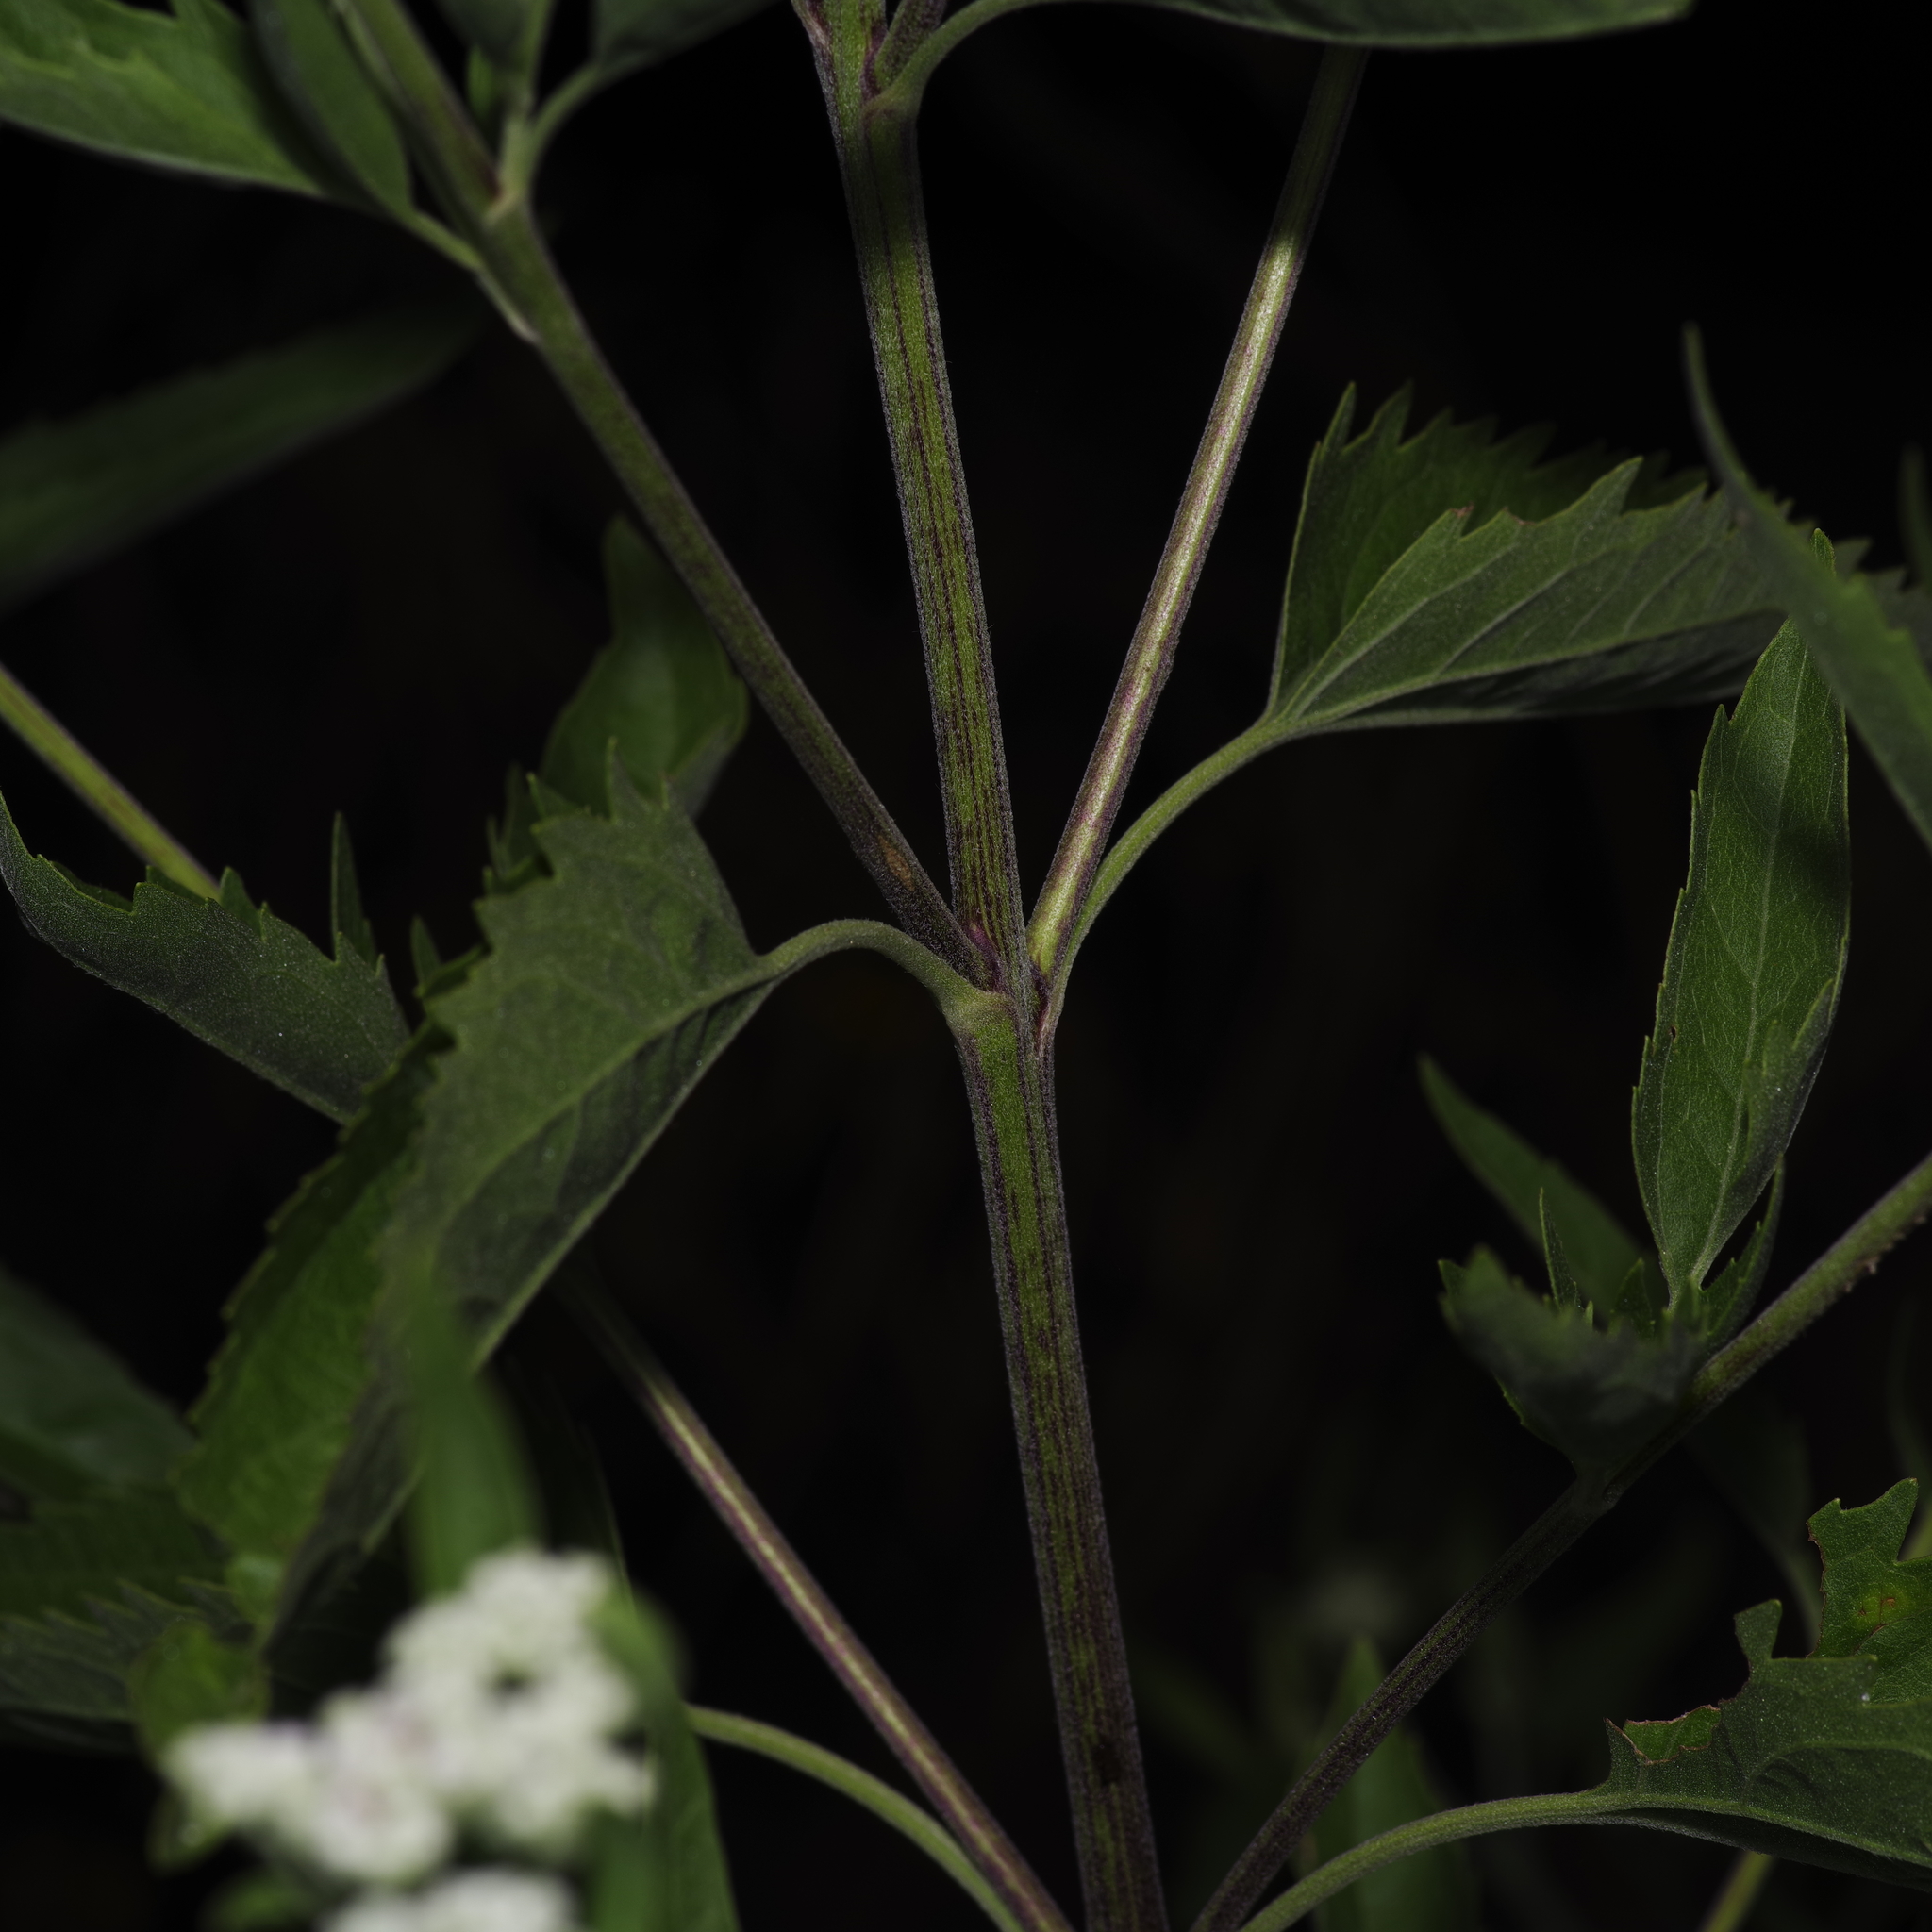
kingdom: Plantae
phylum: Tracheophyta
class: Magnoliopsida
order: Asterales
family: Asteraceae
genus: Eupatorium
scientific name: Eupatorium serotinum
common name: Late boneset
